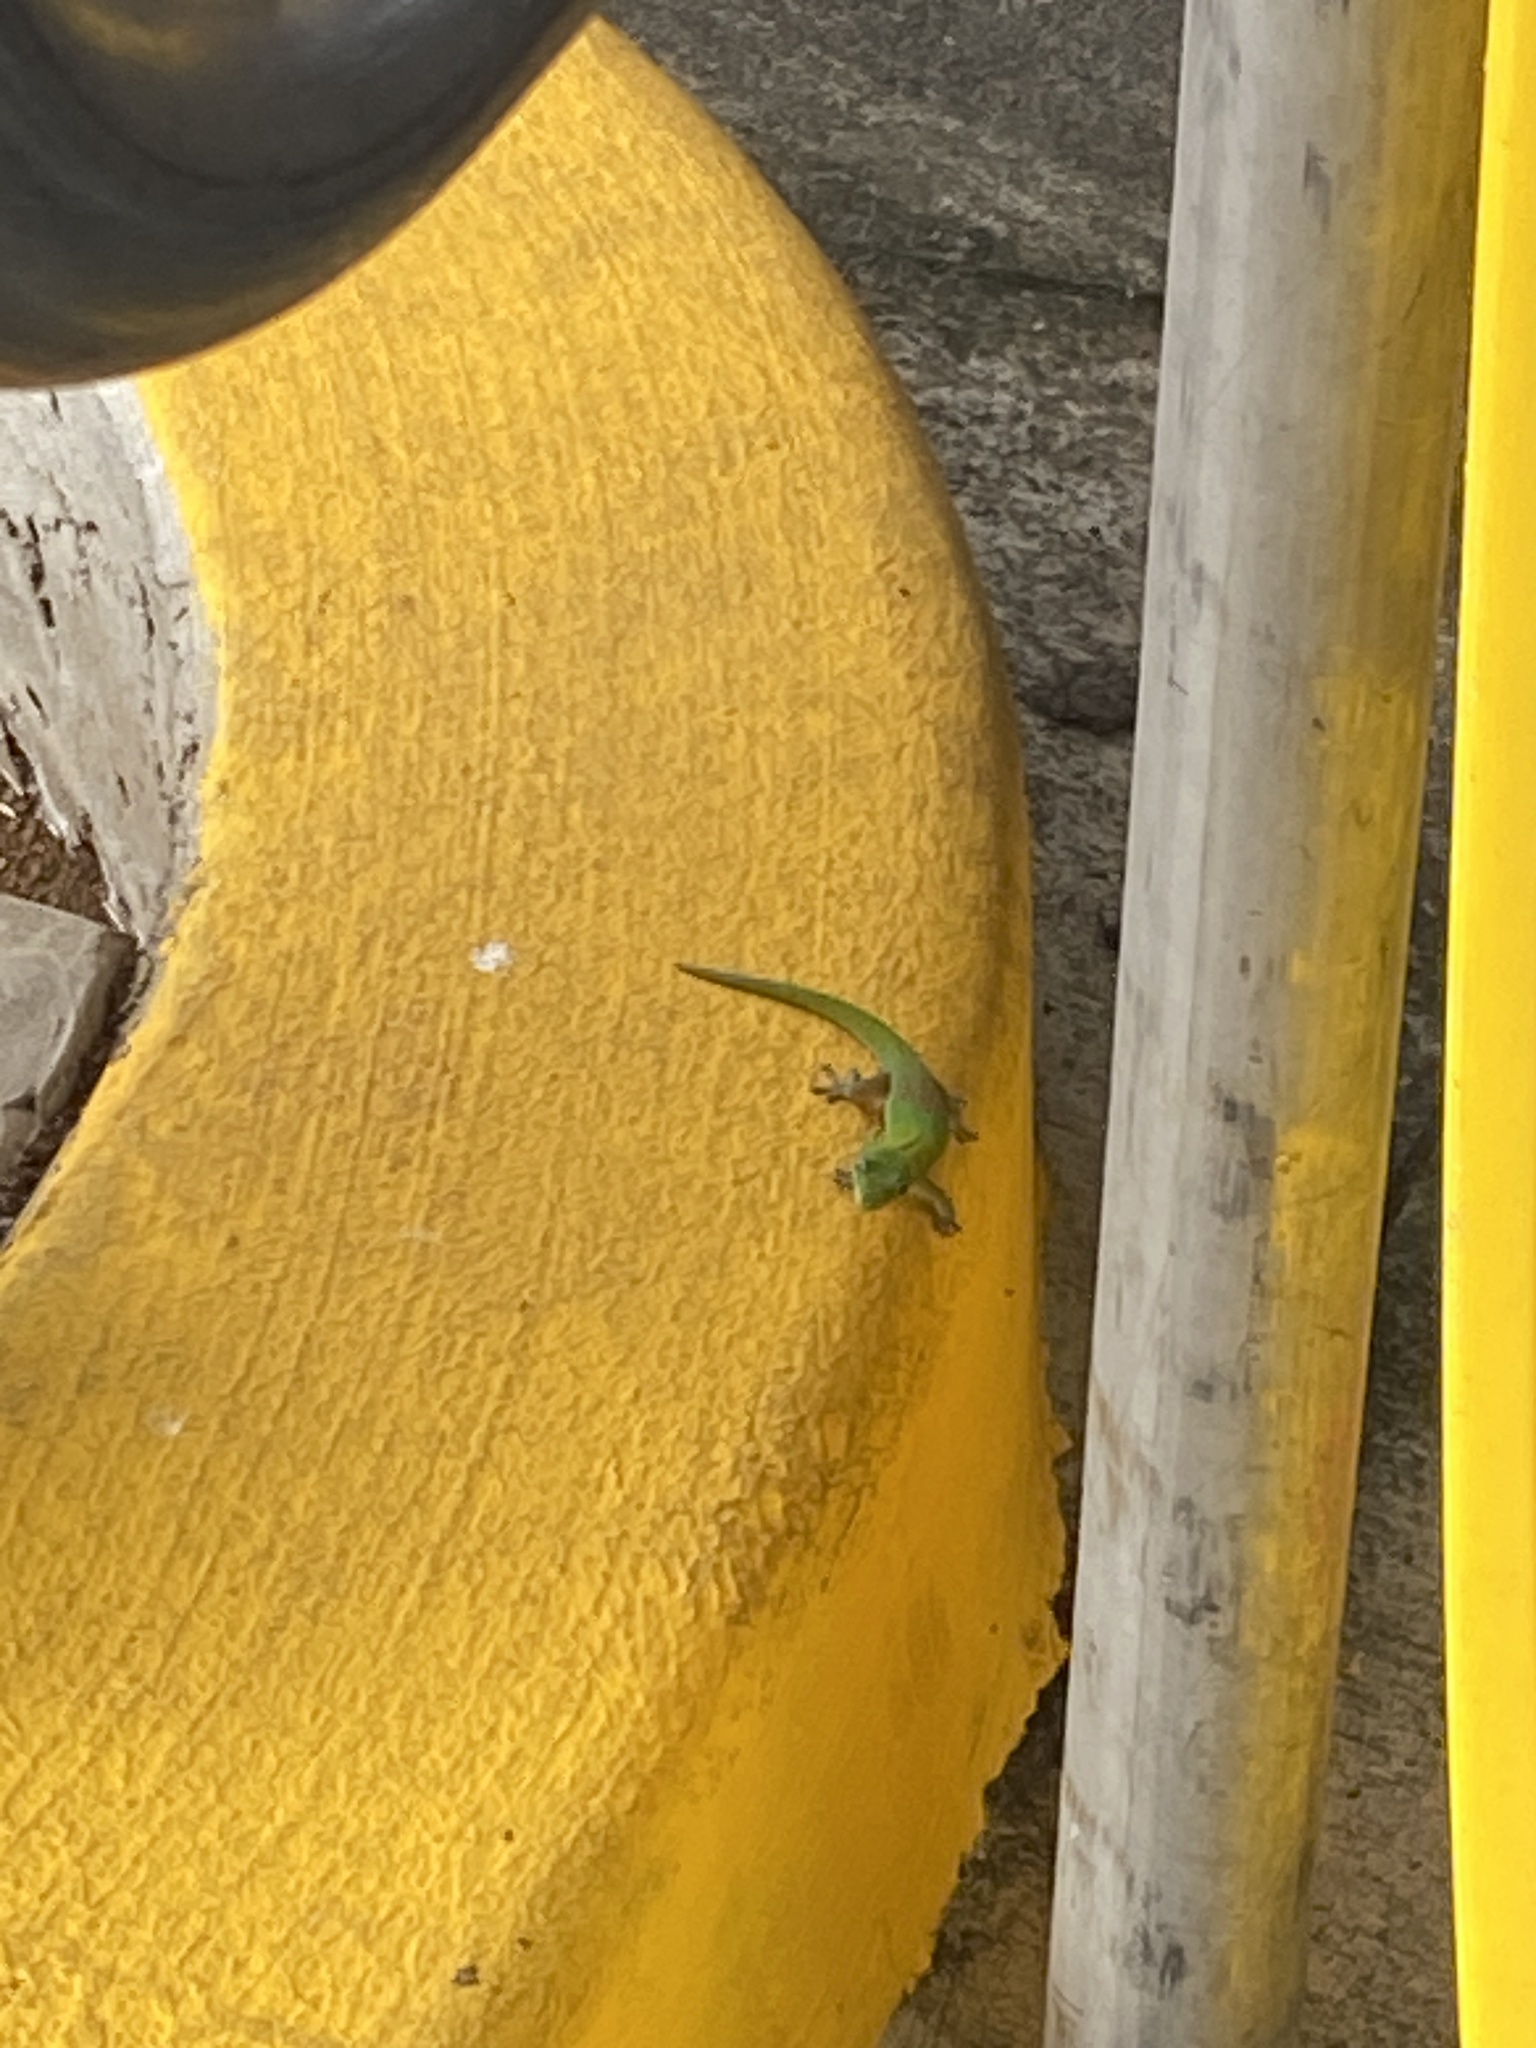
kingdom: Animalia
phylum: Chordata
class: Squamata
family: Gekkonidae
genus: Phelsuma
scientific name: Phelsuma laticauda
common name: Gold dust day gecko
